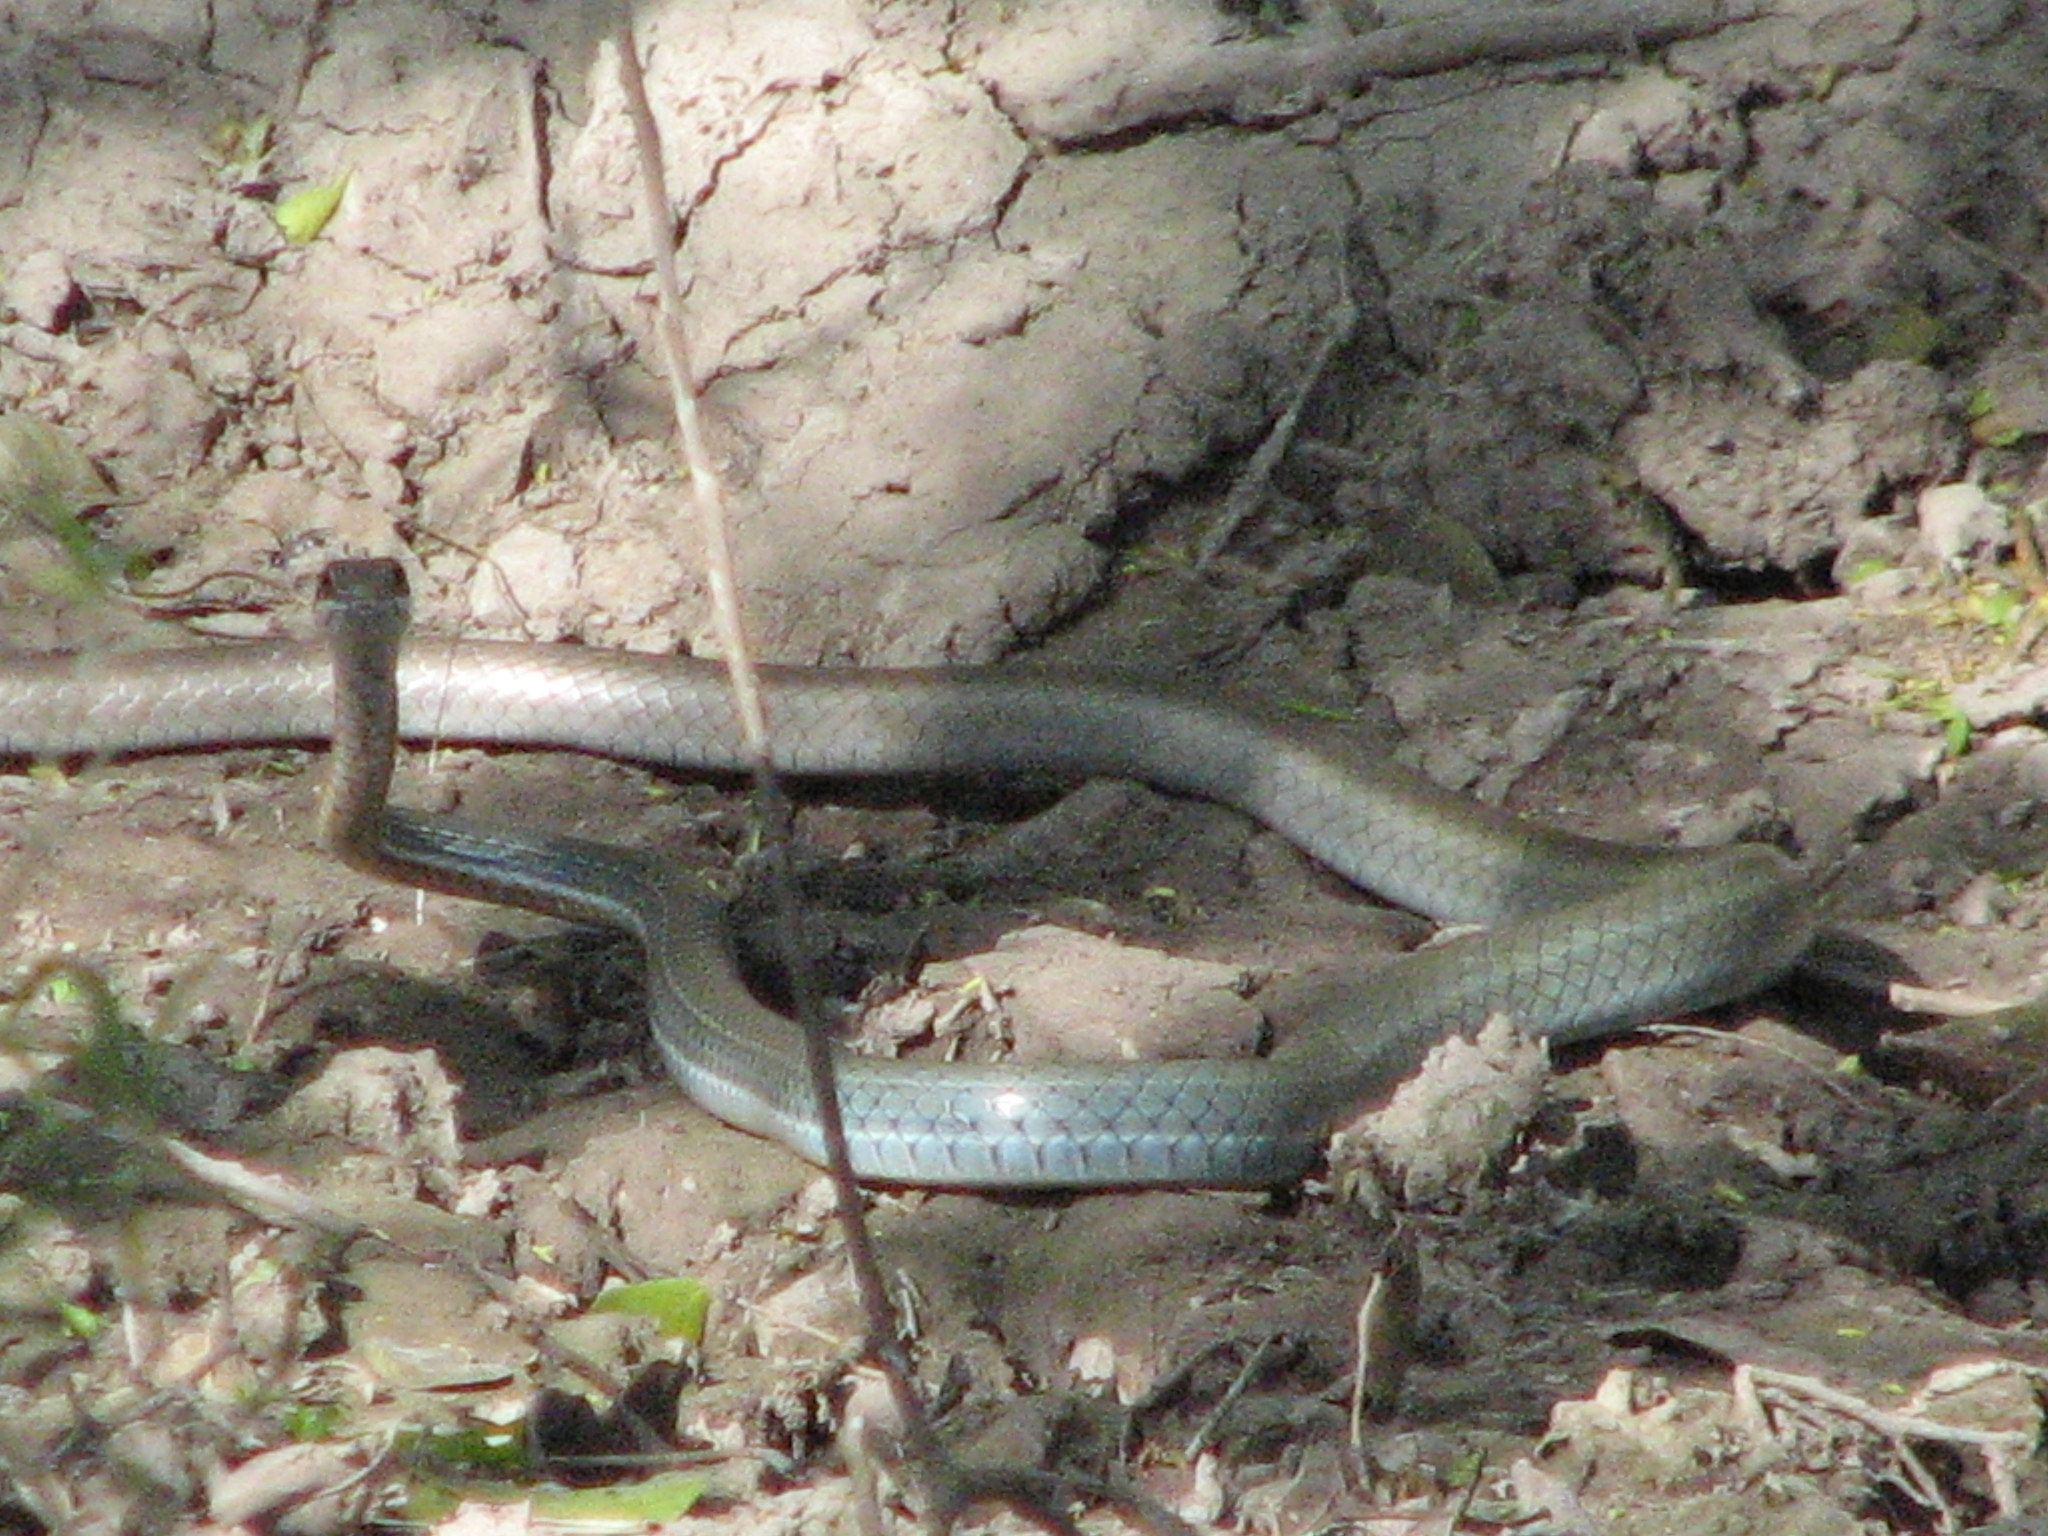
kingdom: Animalia
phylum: Chordata
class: Squamata
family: Colubridae
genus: Masticophis
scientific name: Masticophis schotti
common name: Schott's whipsnake
